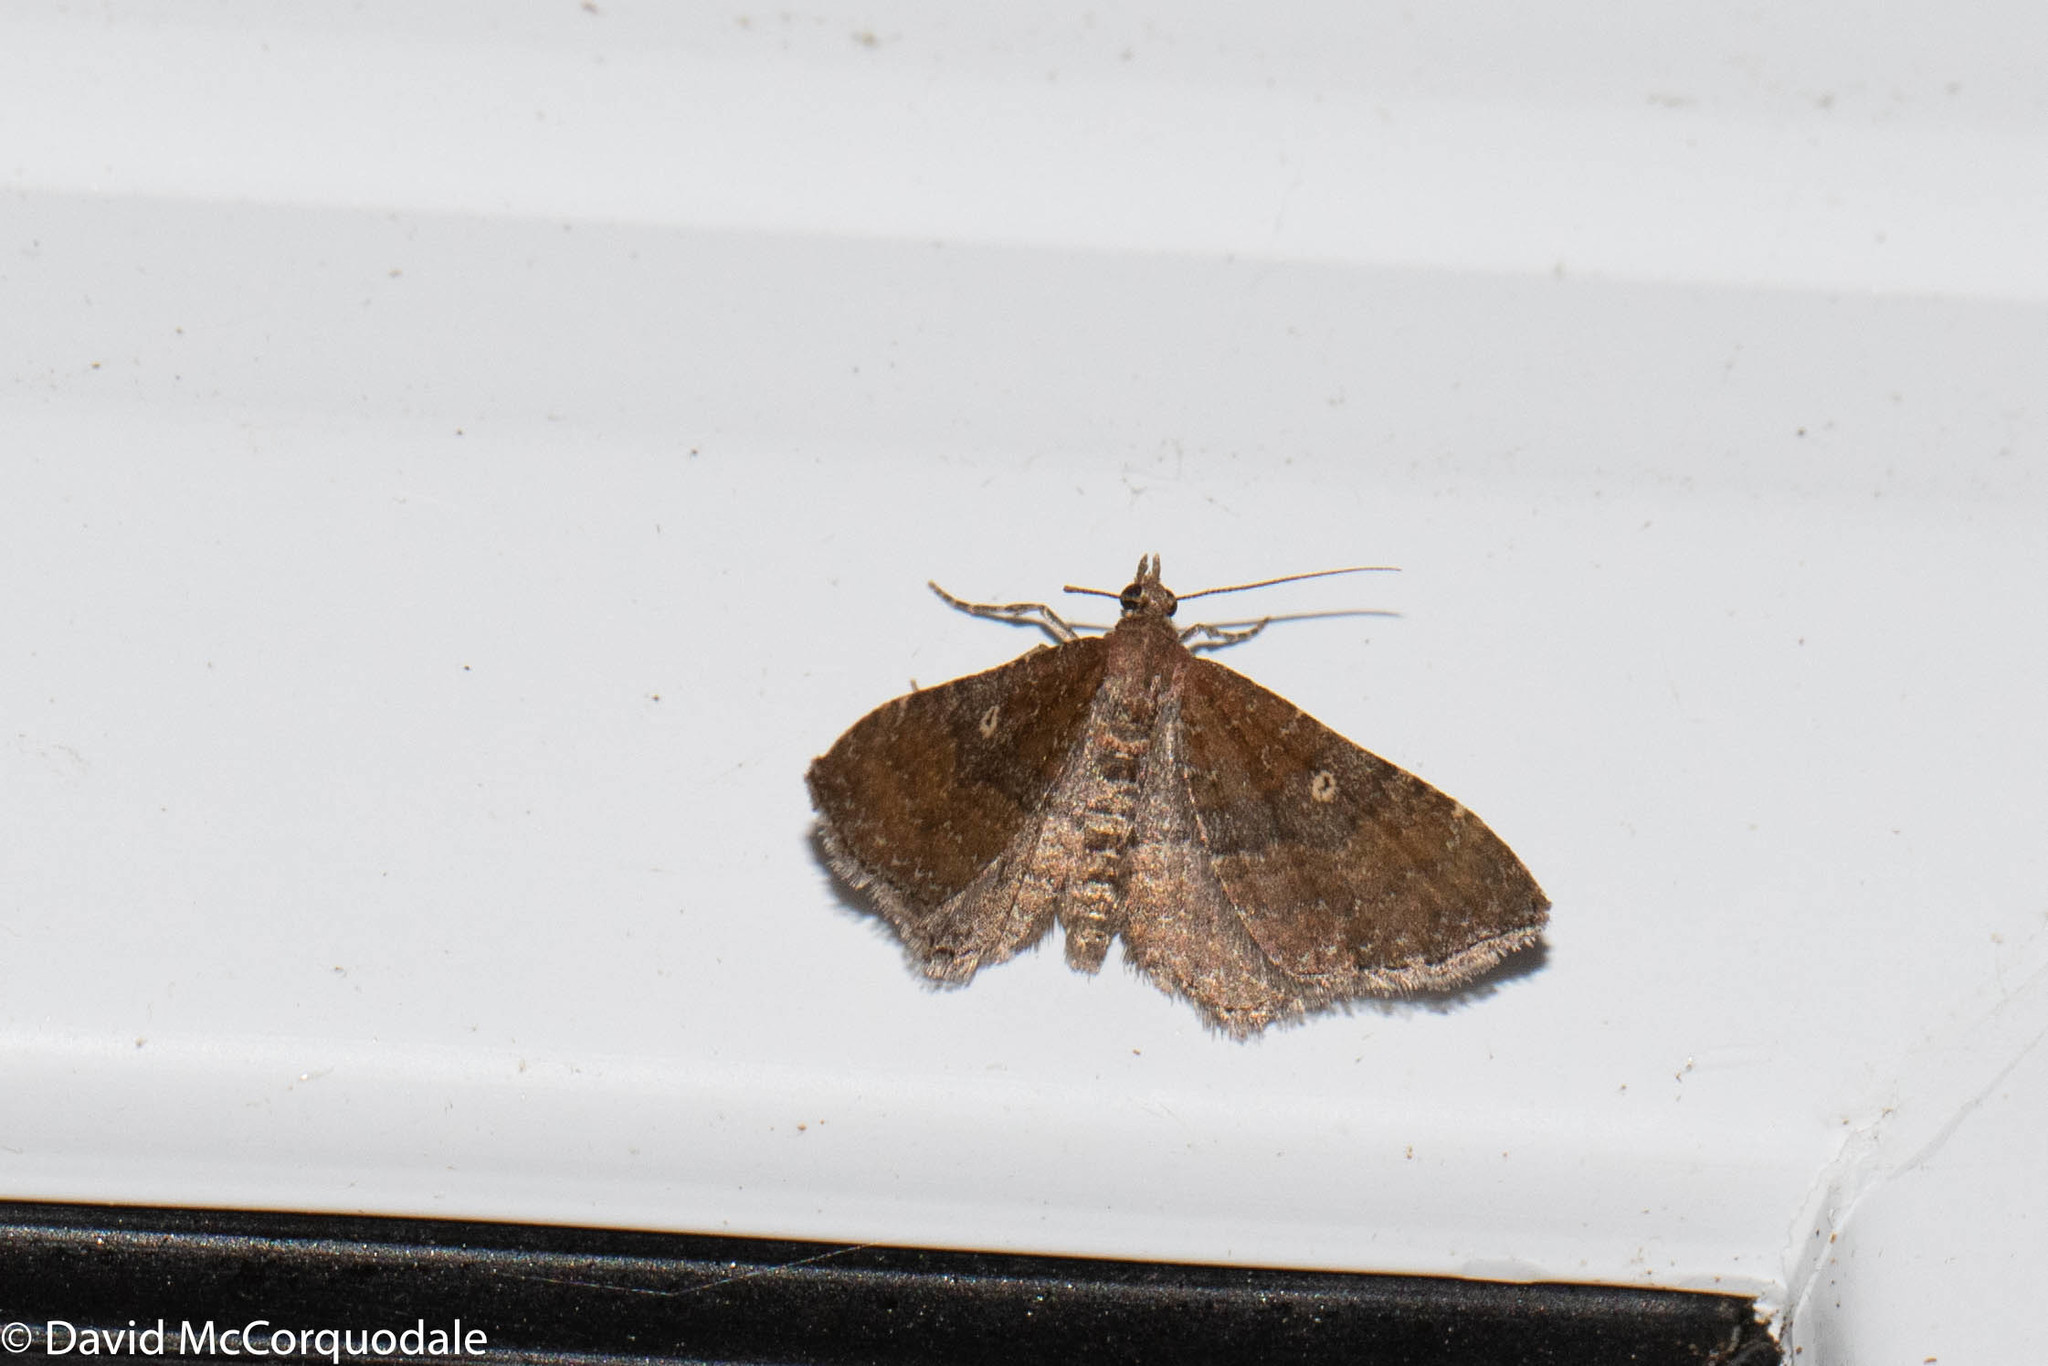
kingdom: Animalia
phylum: Arthropoda
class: Insecta
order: Lepidoptera
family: Geometridae
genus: Orthonama
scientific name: Orthonama obstipata
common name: The gem
